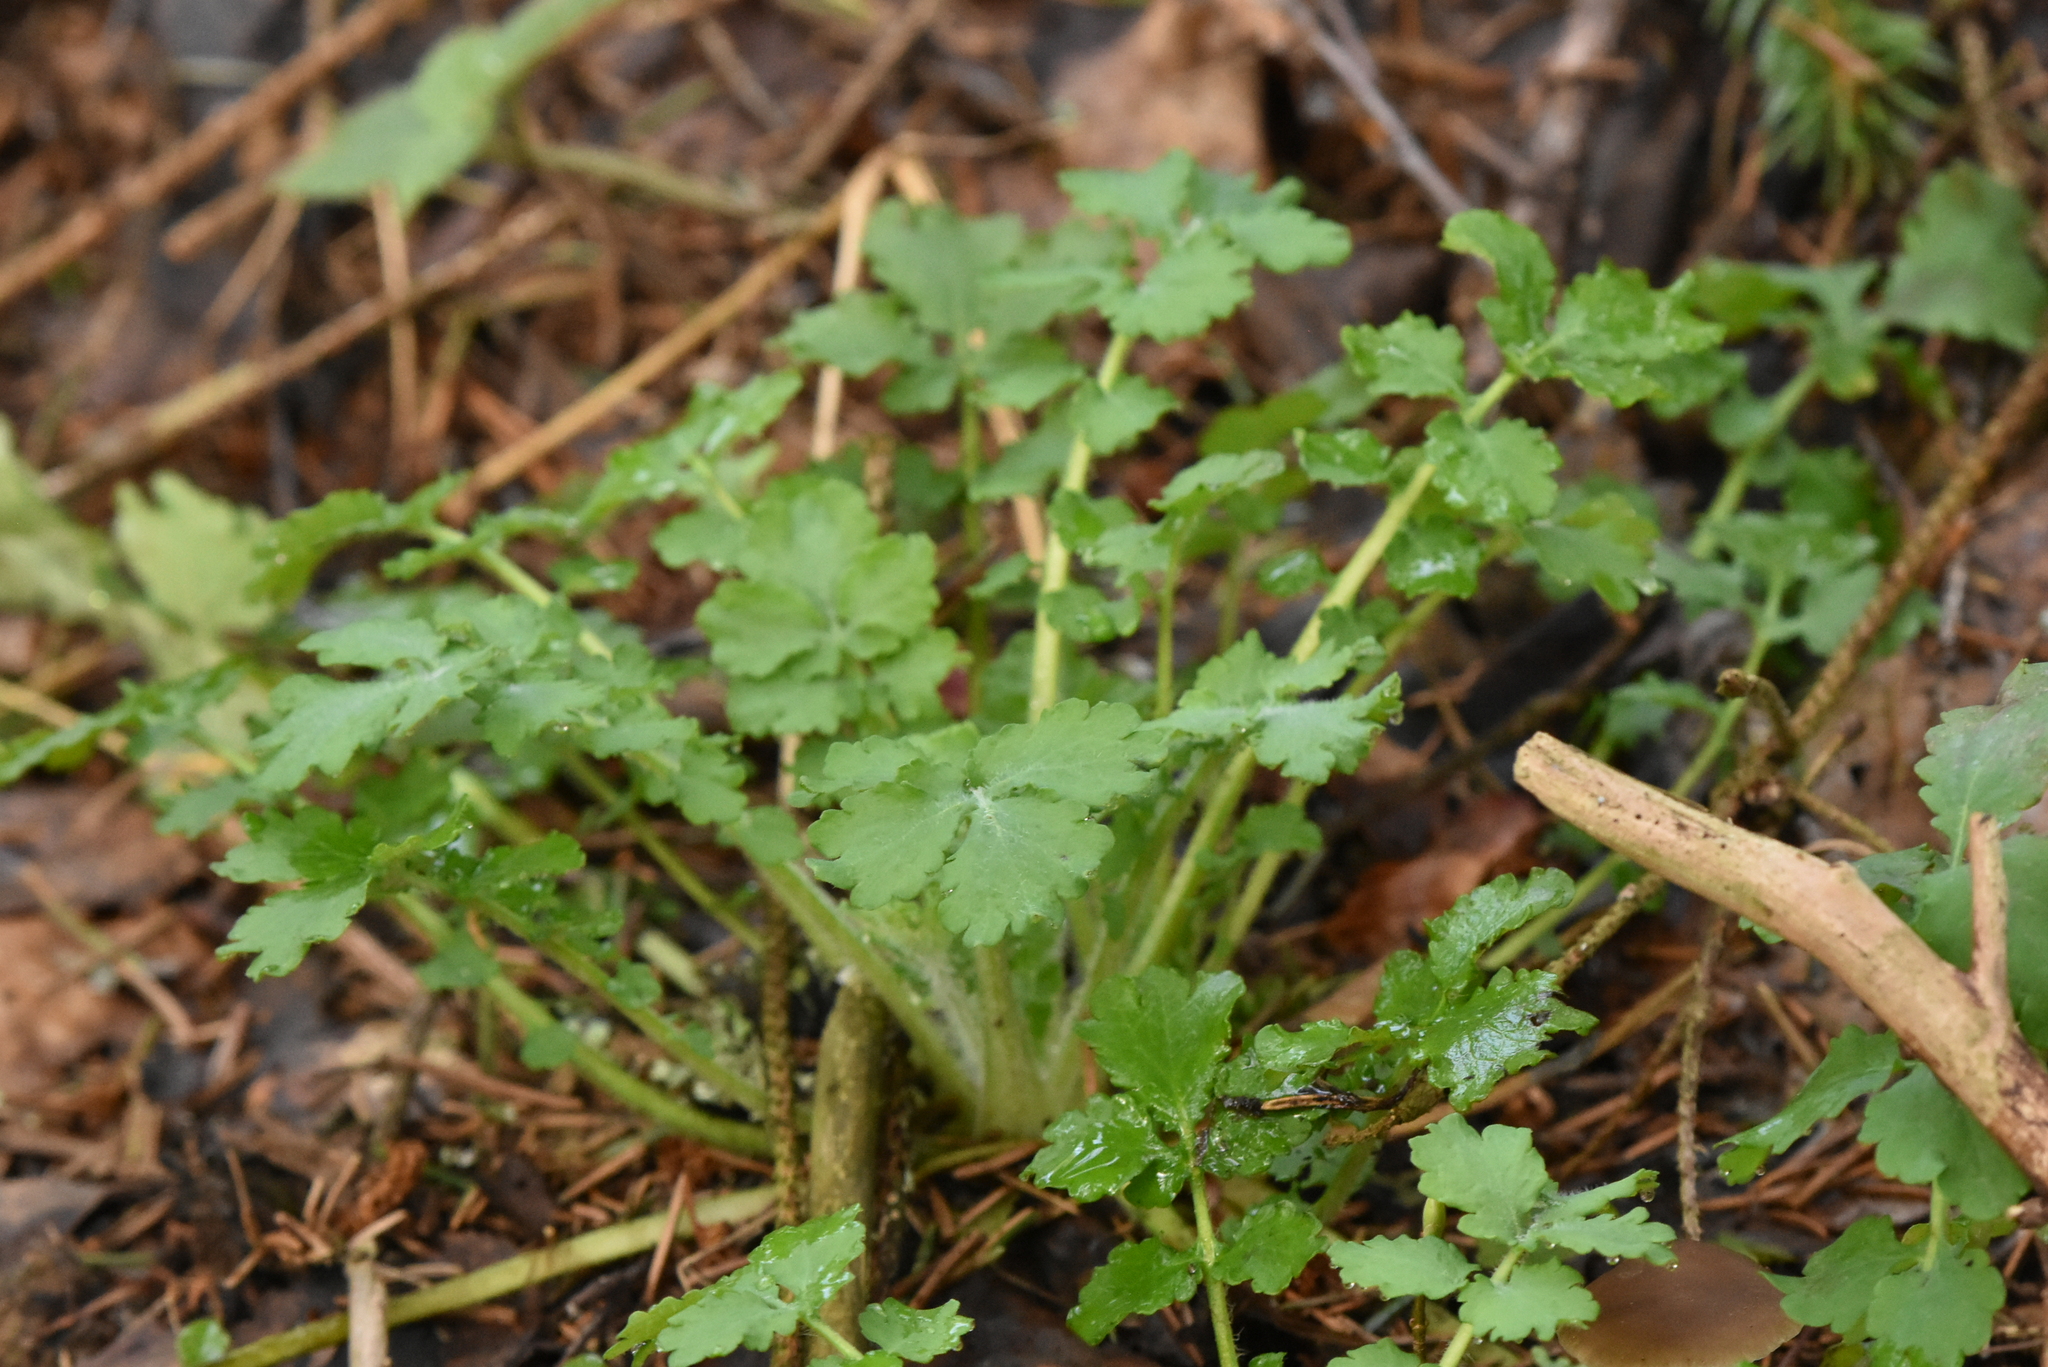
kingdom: Plantae
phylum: Tracheophyta
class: Magnoliopsida
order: Ranunculales
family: Papaveraceae
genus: Chelidonium
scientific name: Chelidonium majus
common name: Greater celandine
